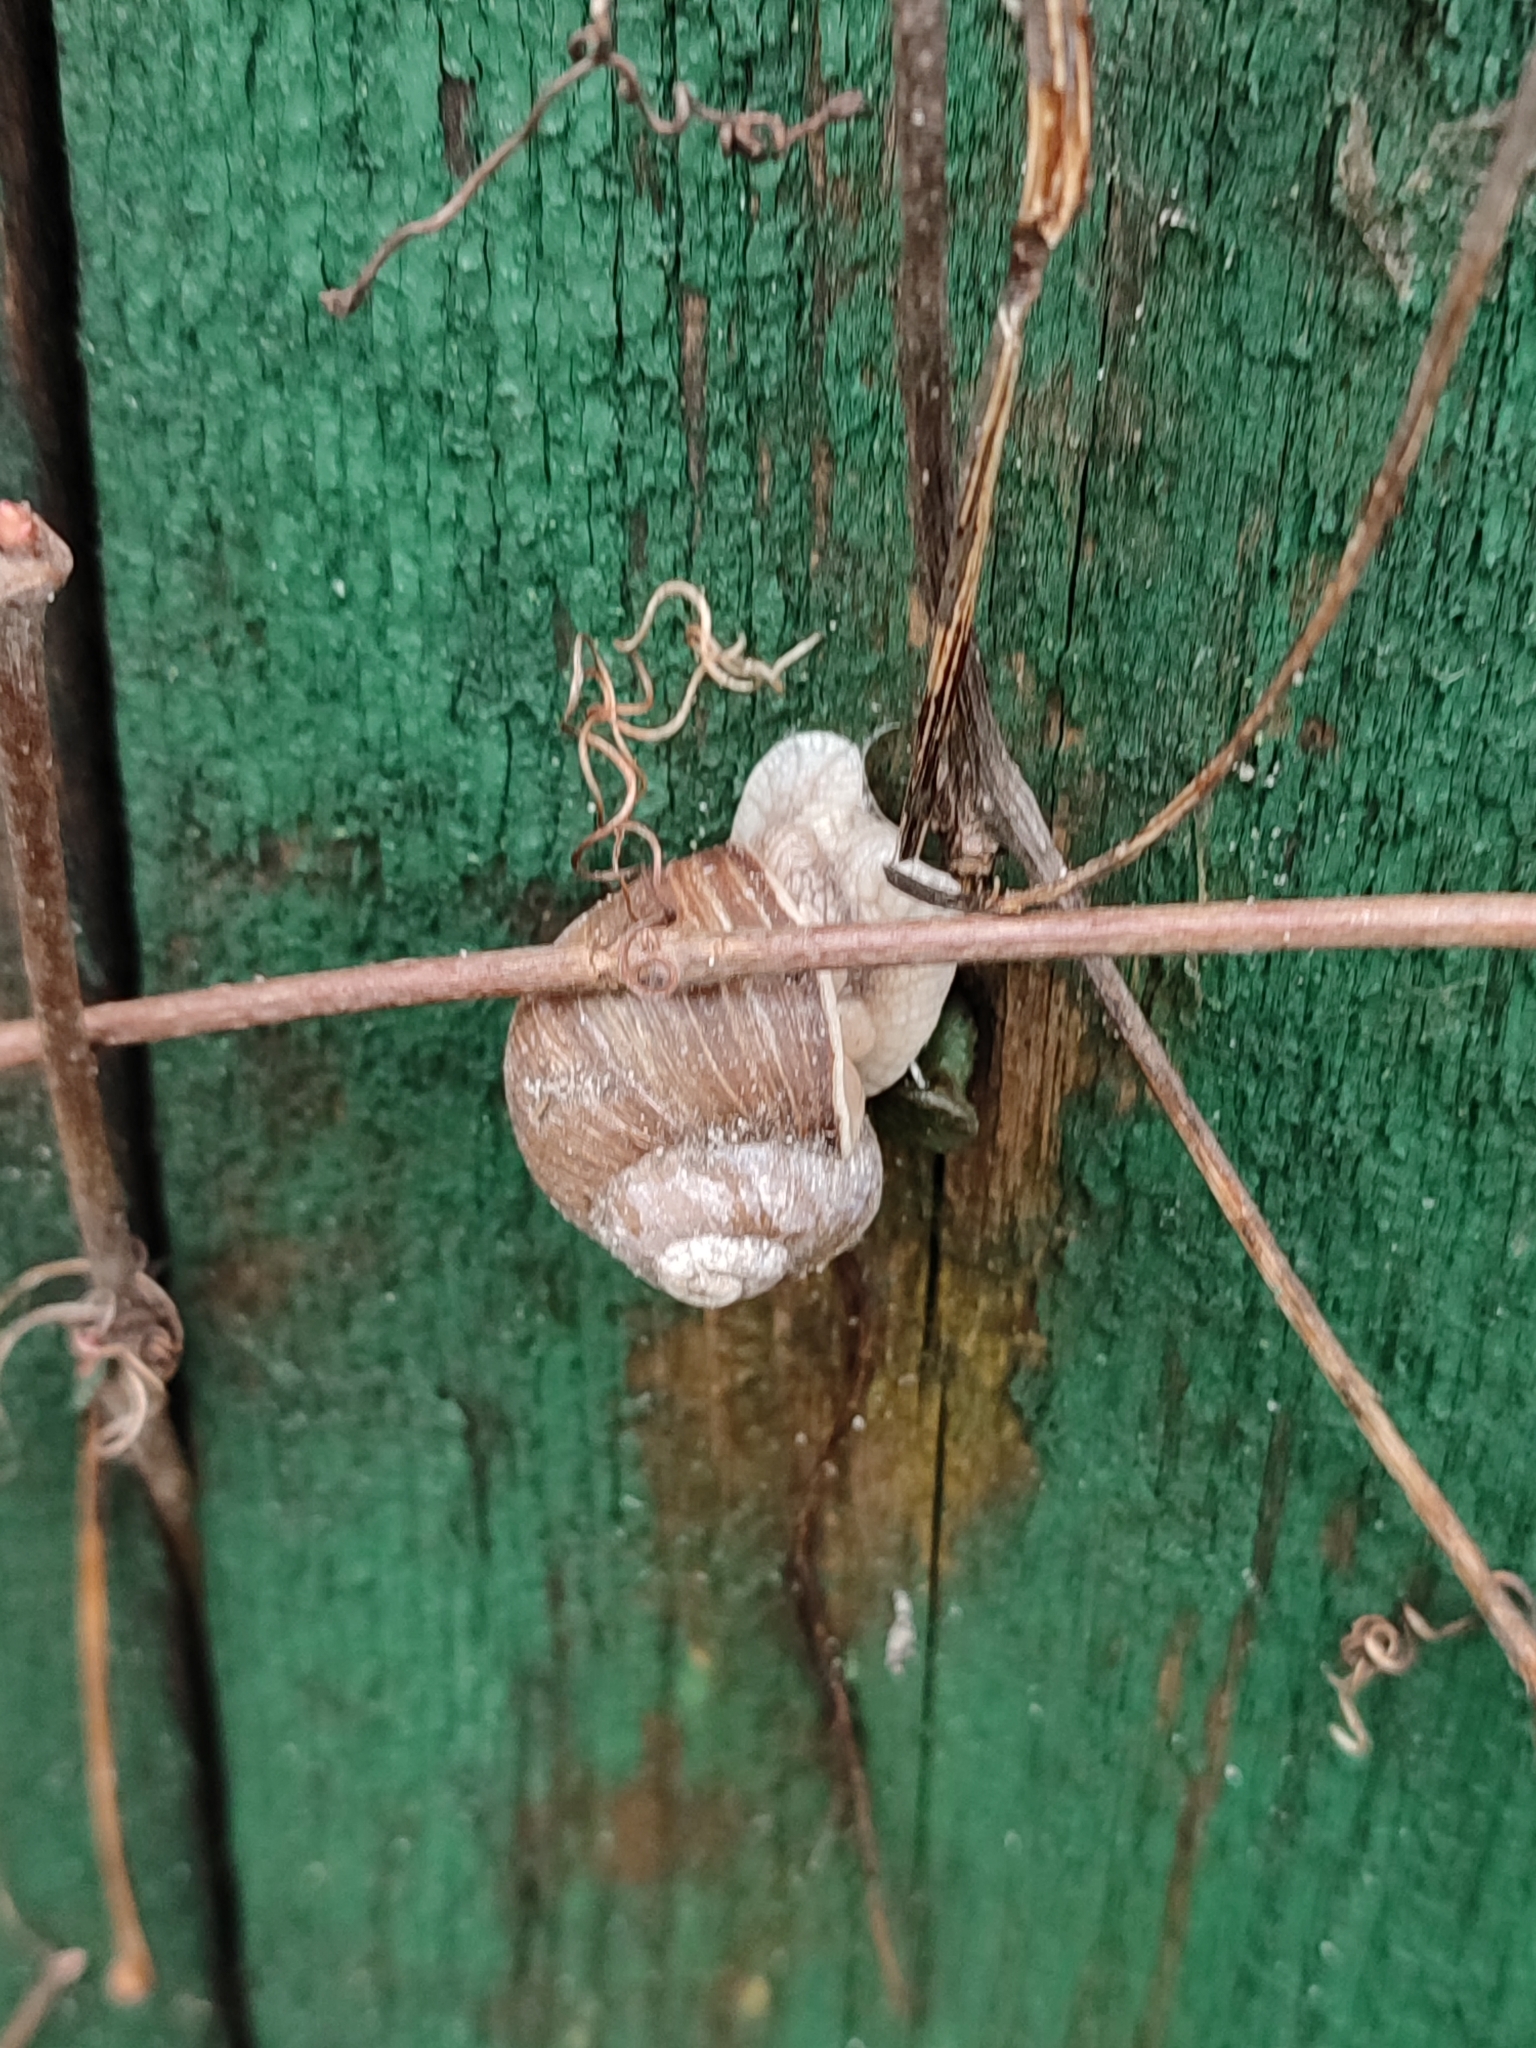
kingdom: Animalia
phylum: Mollusca
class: Gastropoda
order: Stylommatophora
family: Helicidae
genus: Helix
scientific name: Helix pomatia
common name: Roman snail
